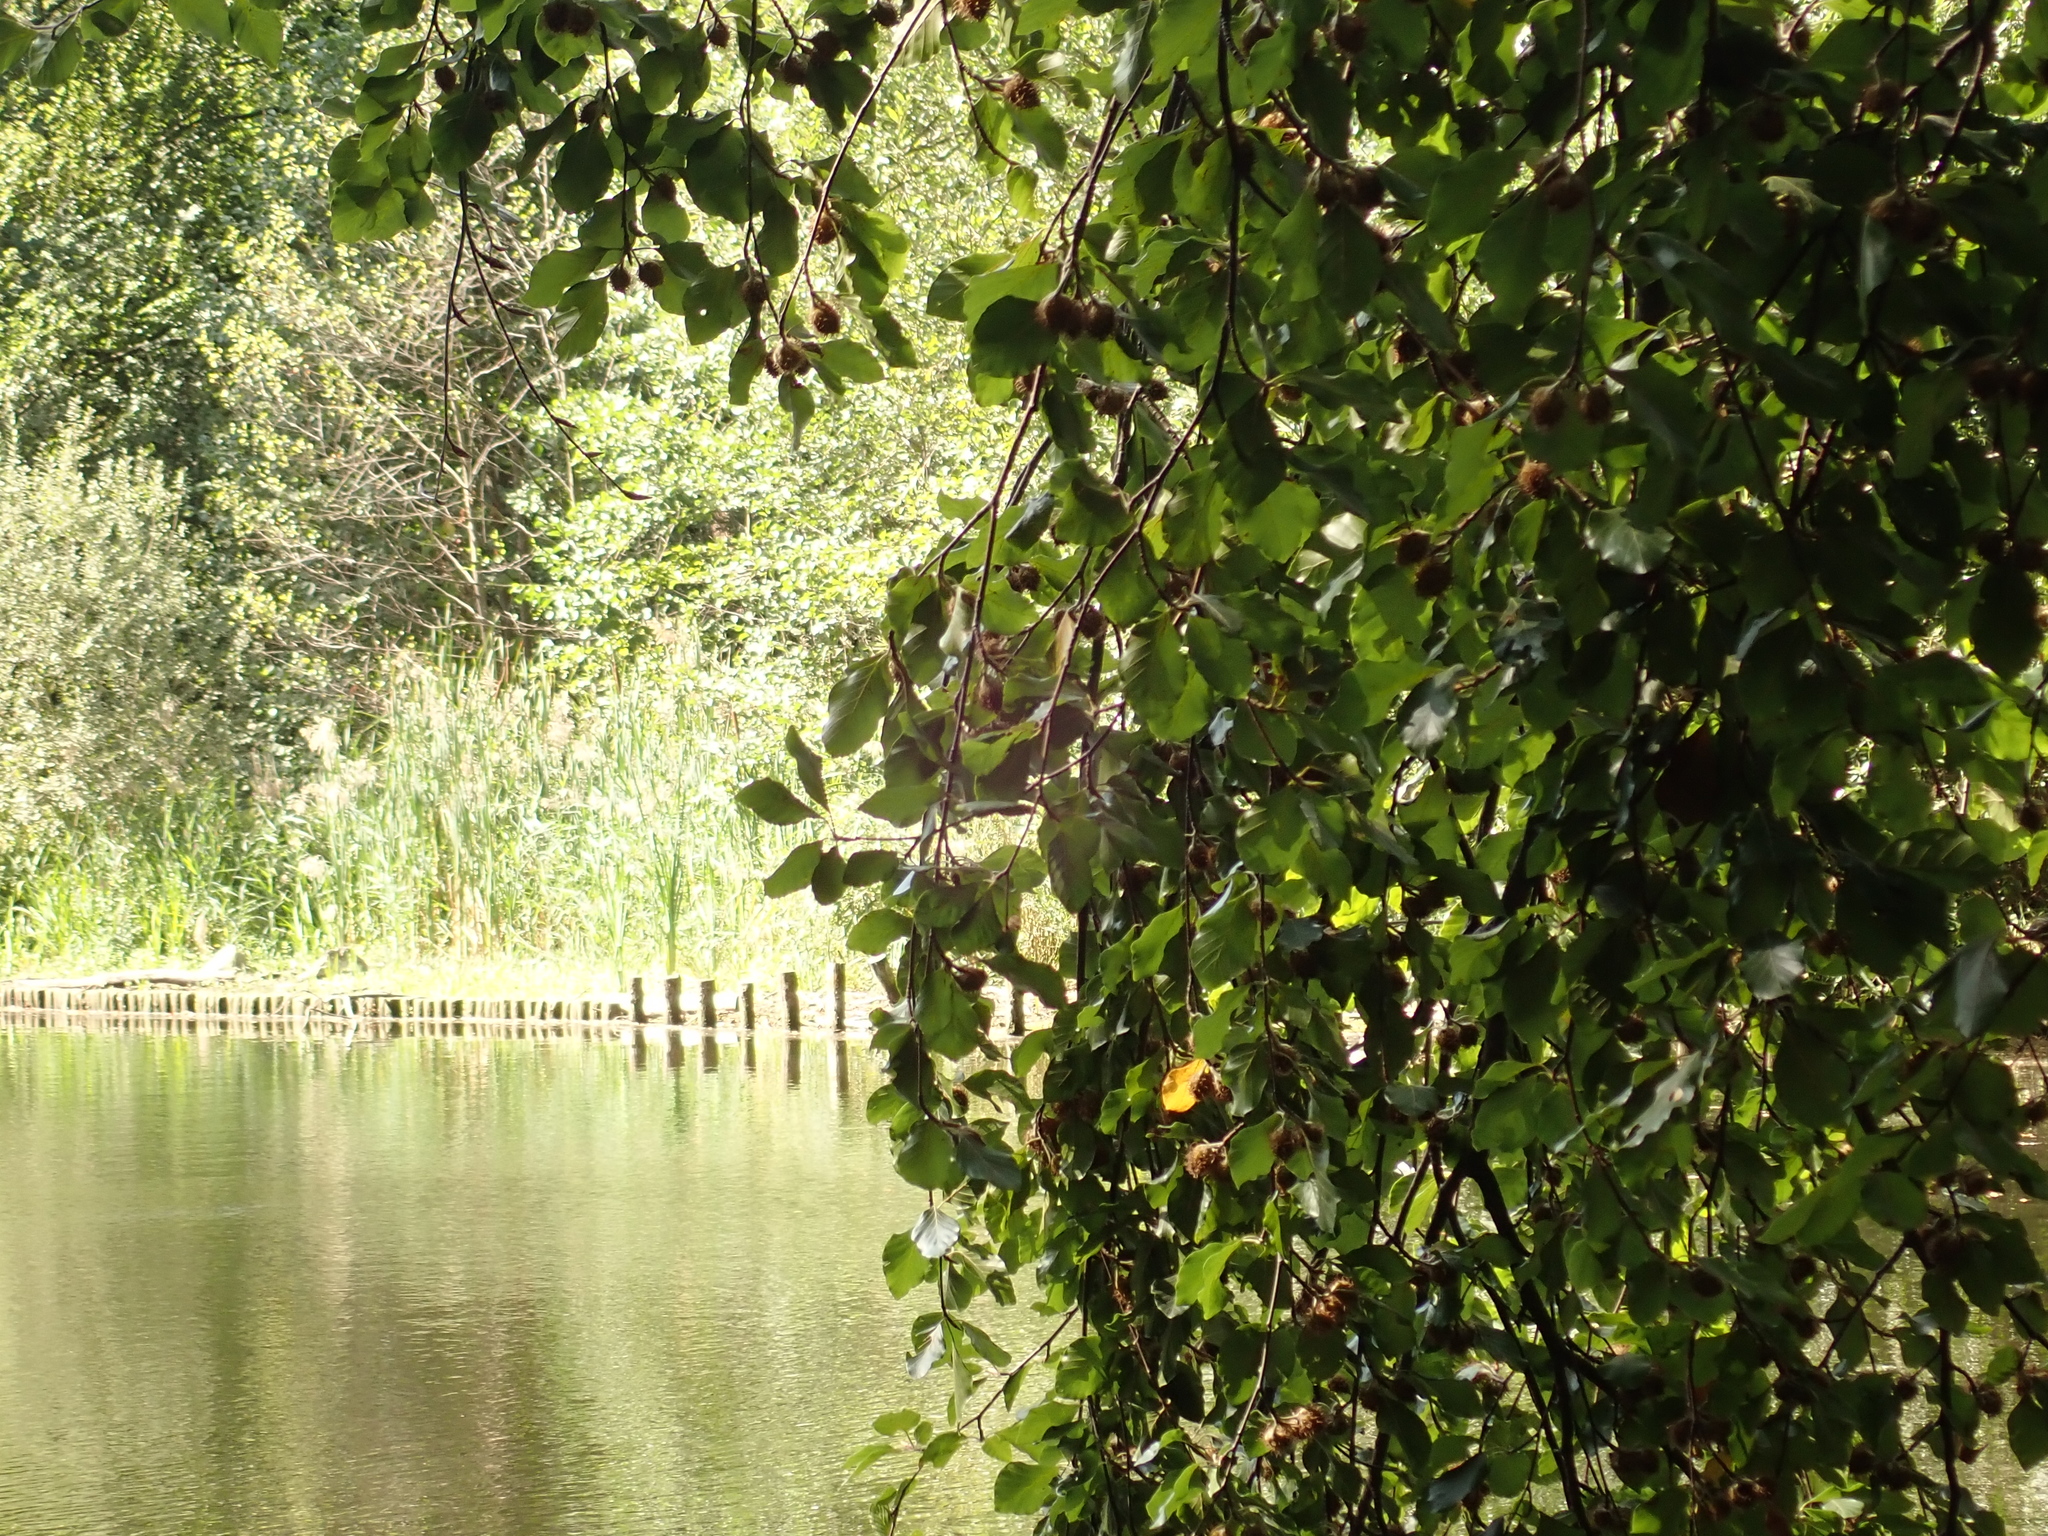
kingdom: Plantae
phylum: Tracheophyta
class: Magnoliopsida
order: Fagales
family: Fagaceae
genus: Fagus
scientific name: Fagus sylvatica
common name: Beech
